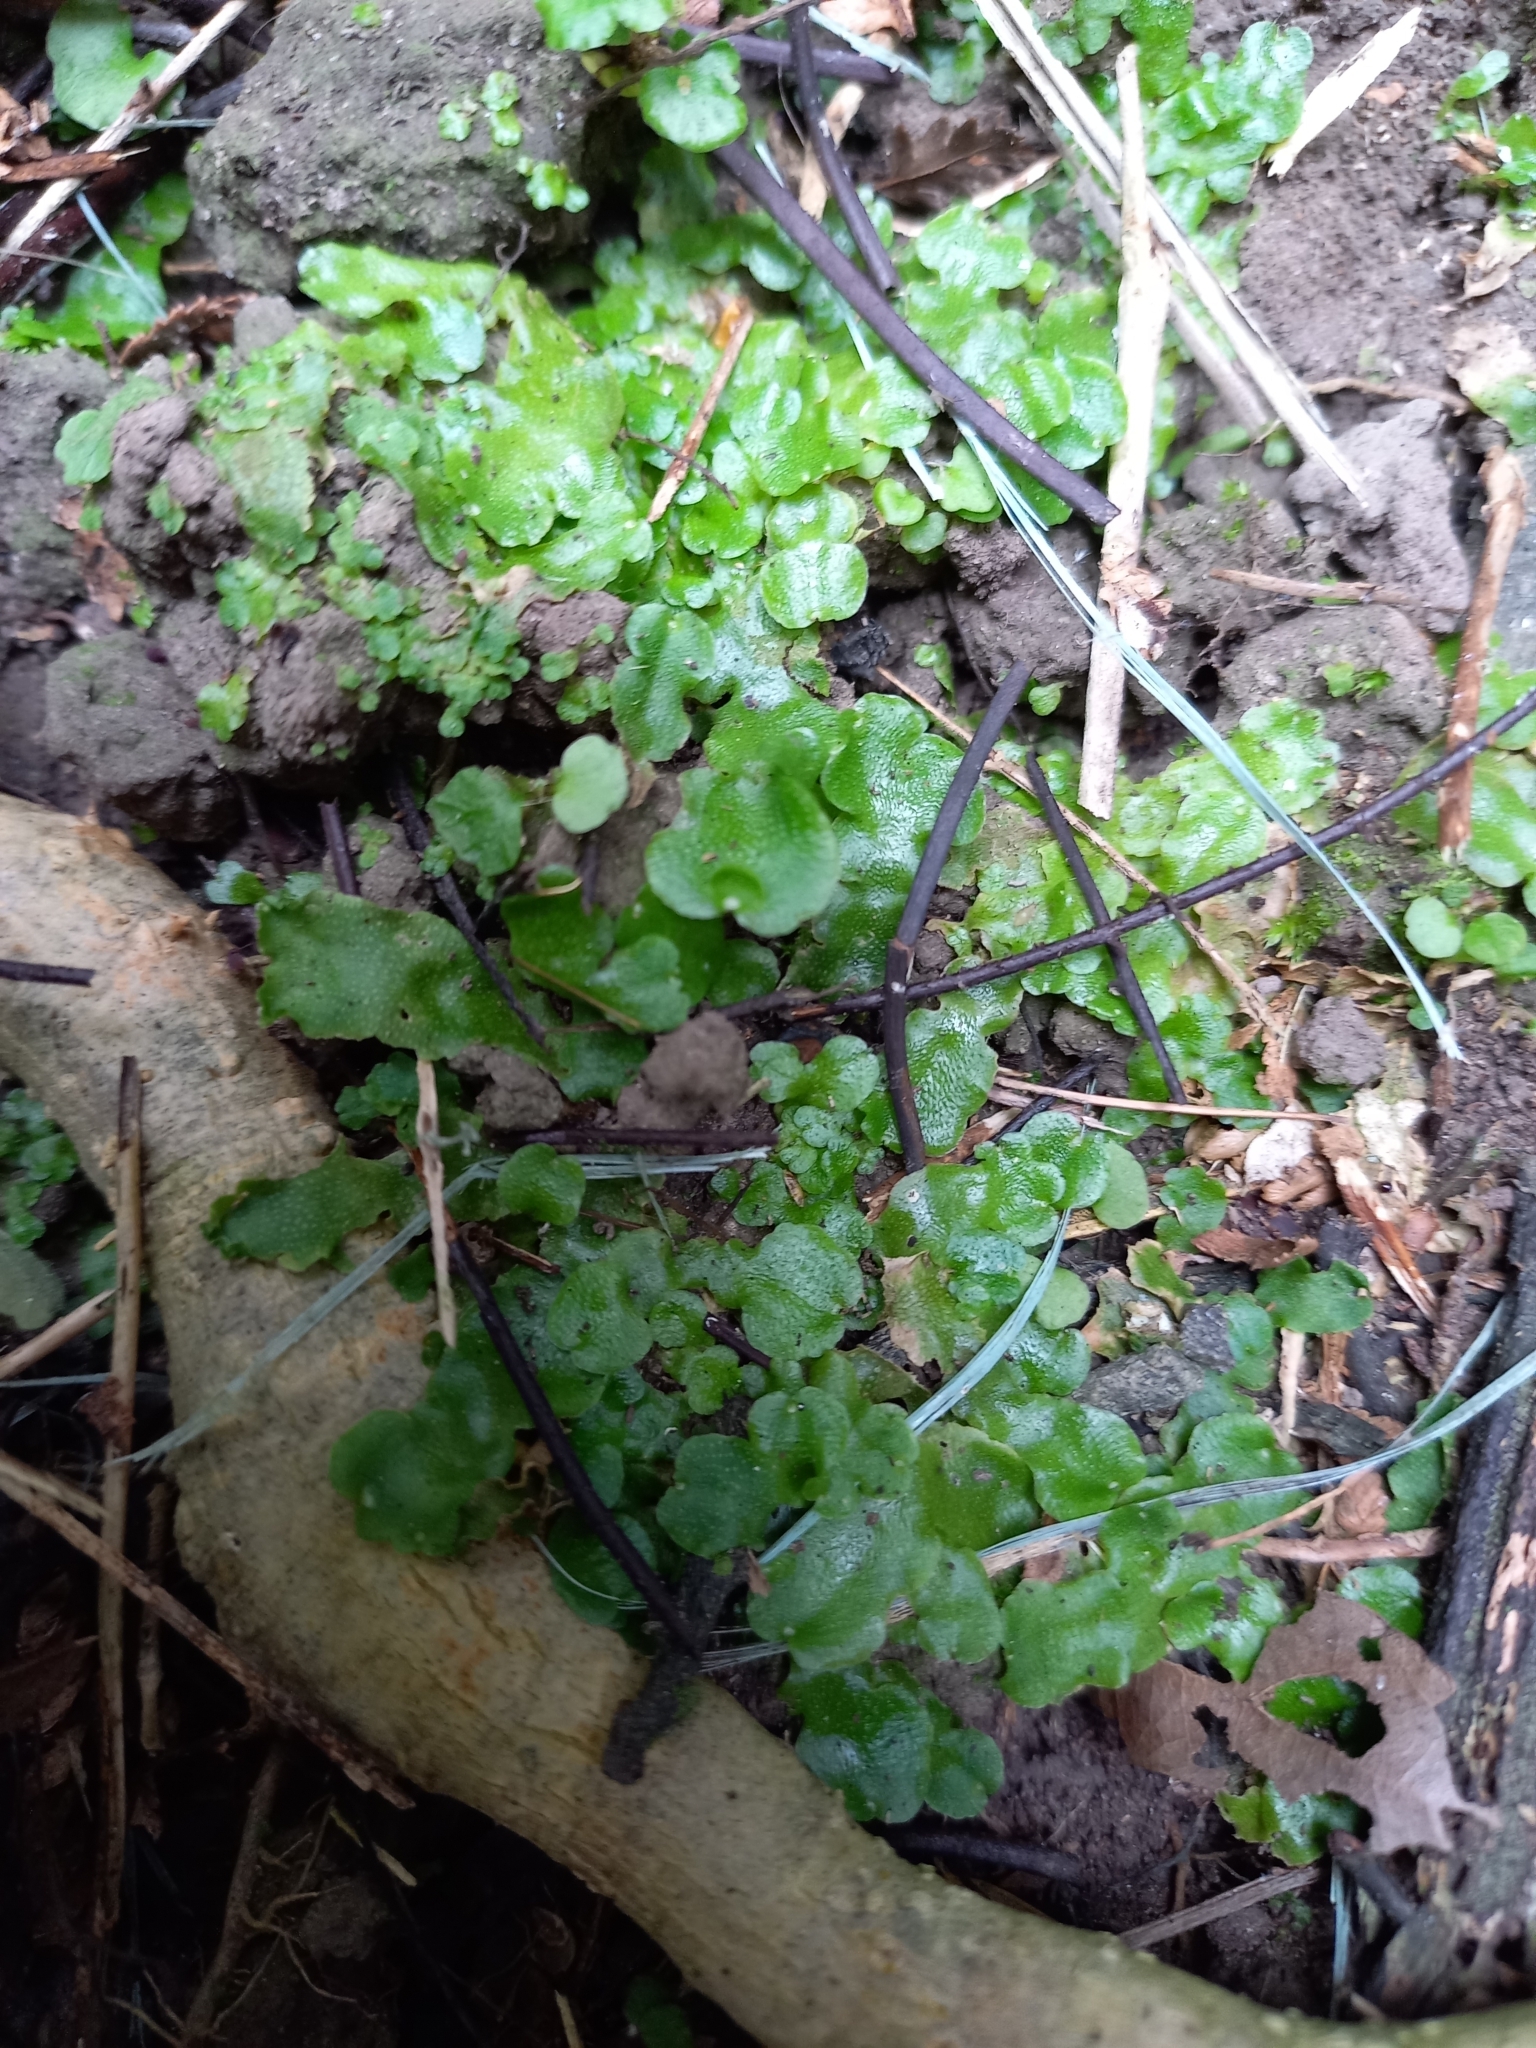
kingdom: Plantae
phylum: Marchantiophyta
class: Marchantiopsida
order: Lunulariales
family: Lunulariaceae
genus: Lunularia
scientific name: Lunularia cruciata
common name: Crescent-cup liverwort
